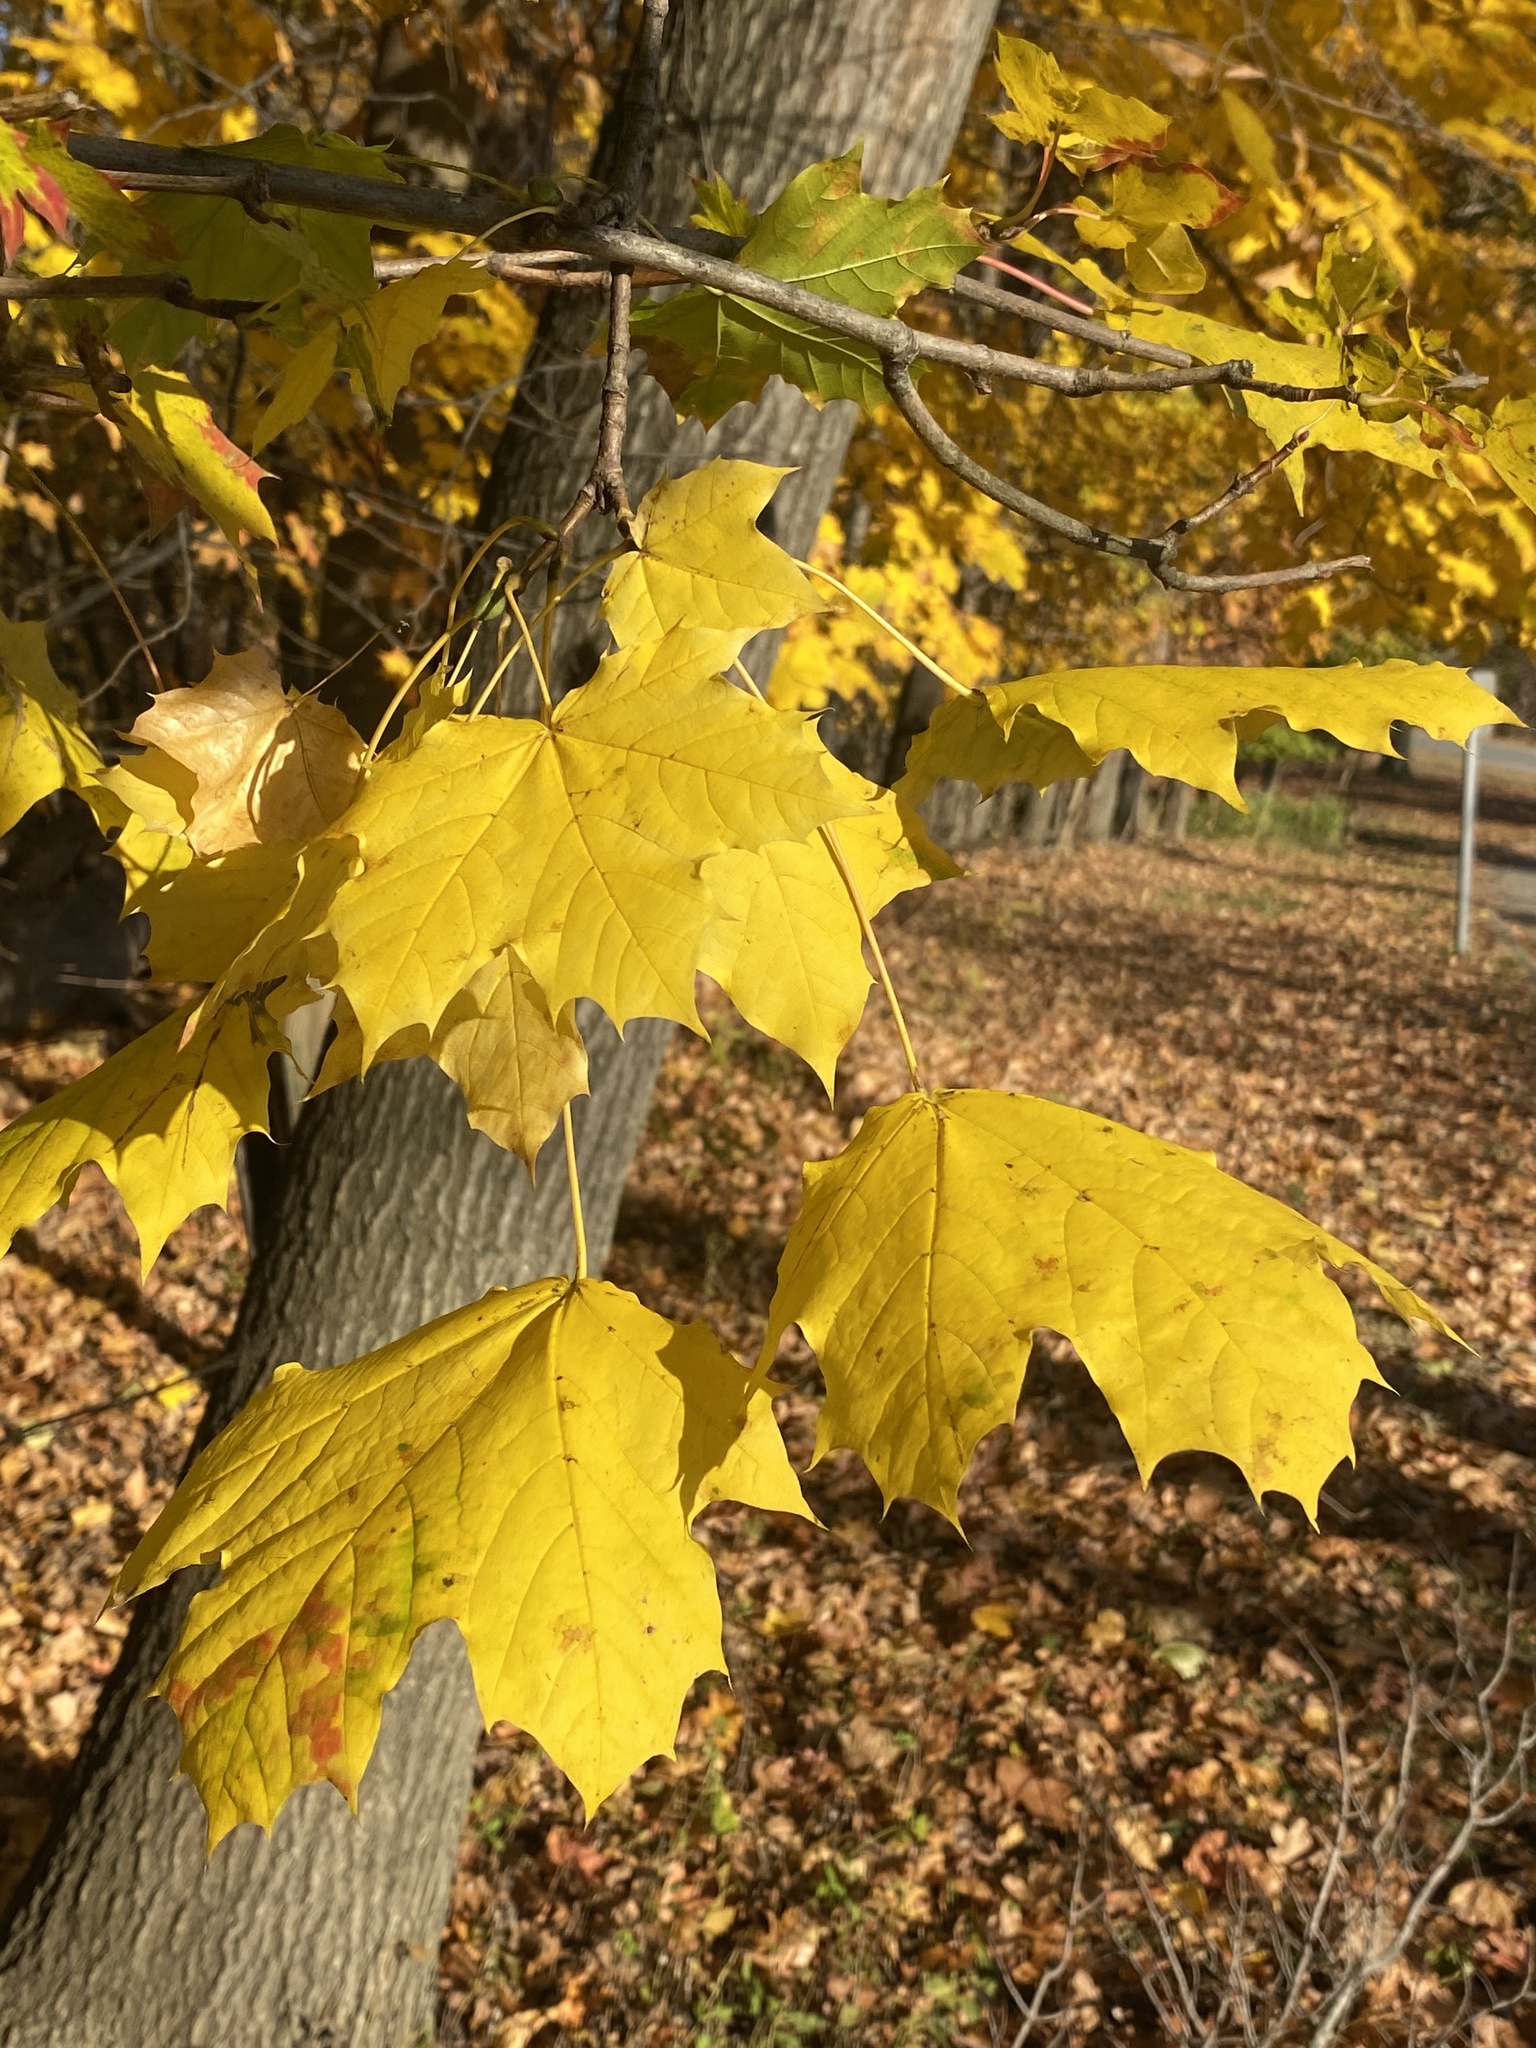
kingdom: Plantae
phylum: Tracheophyta
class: Magnoliopsida
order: Sapindales
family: Sapindaceae
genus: Acer
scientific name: Acer platanoides
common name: Norway maple
